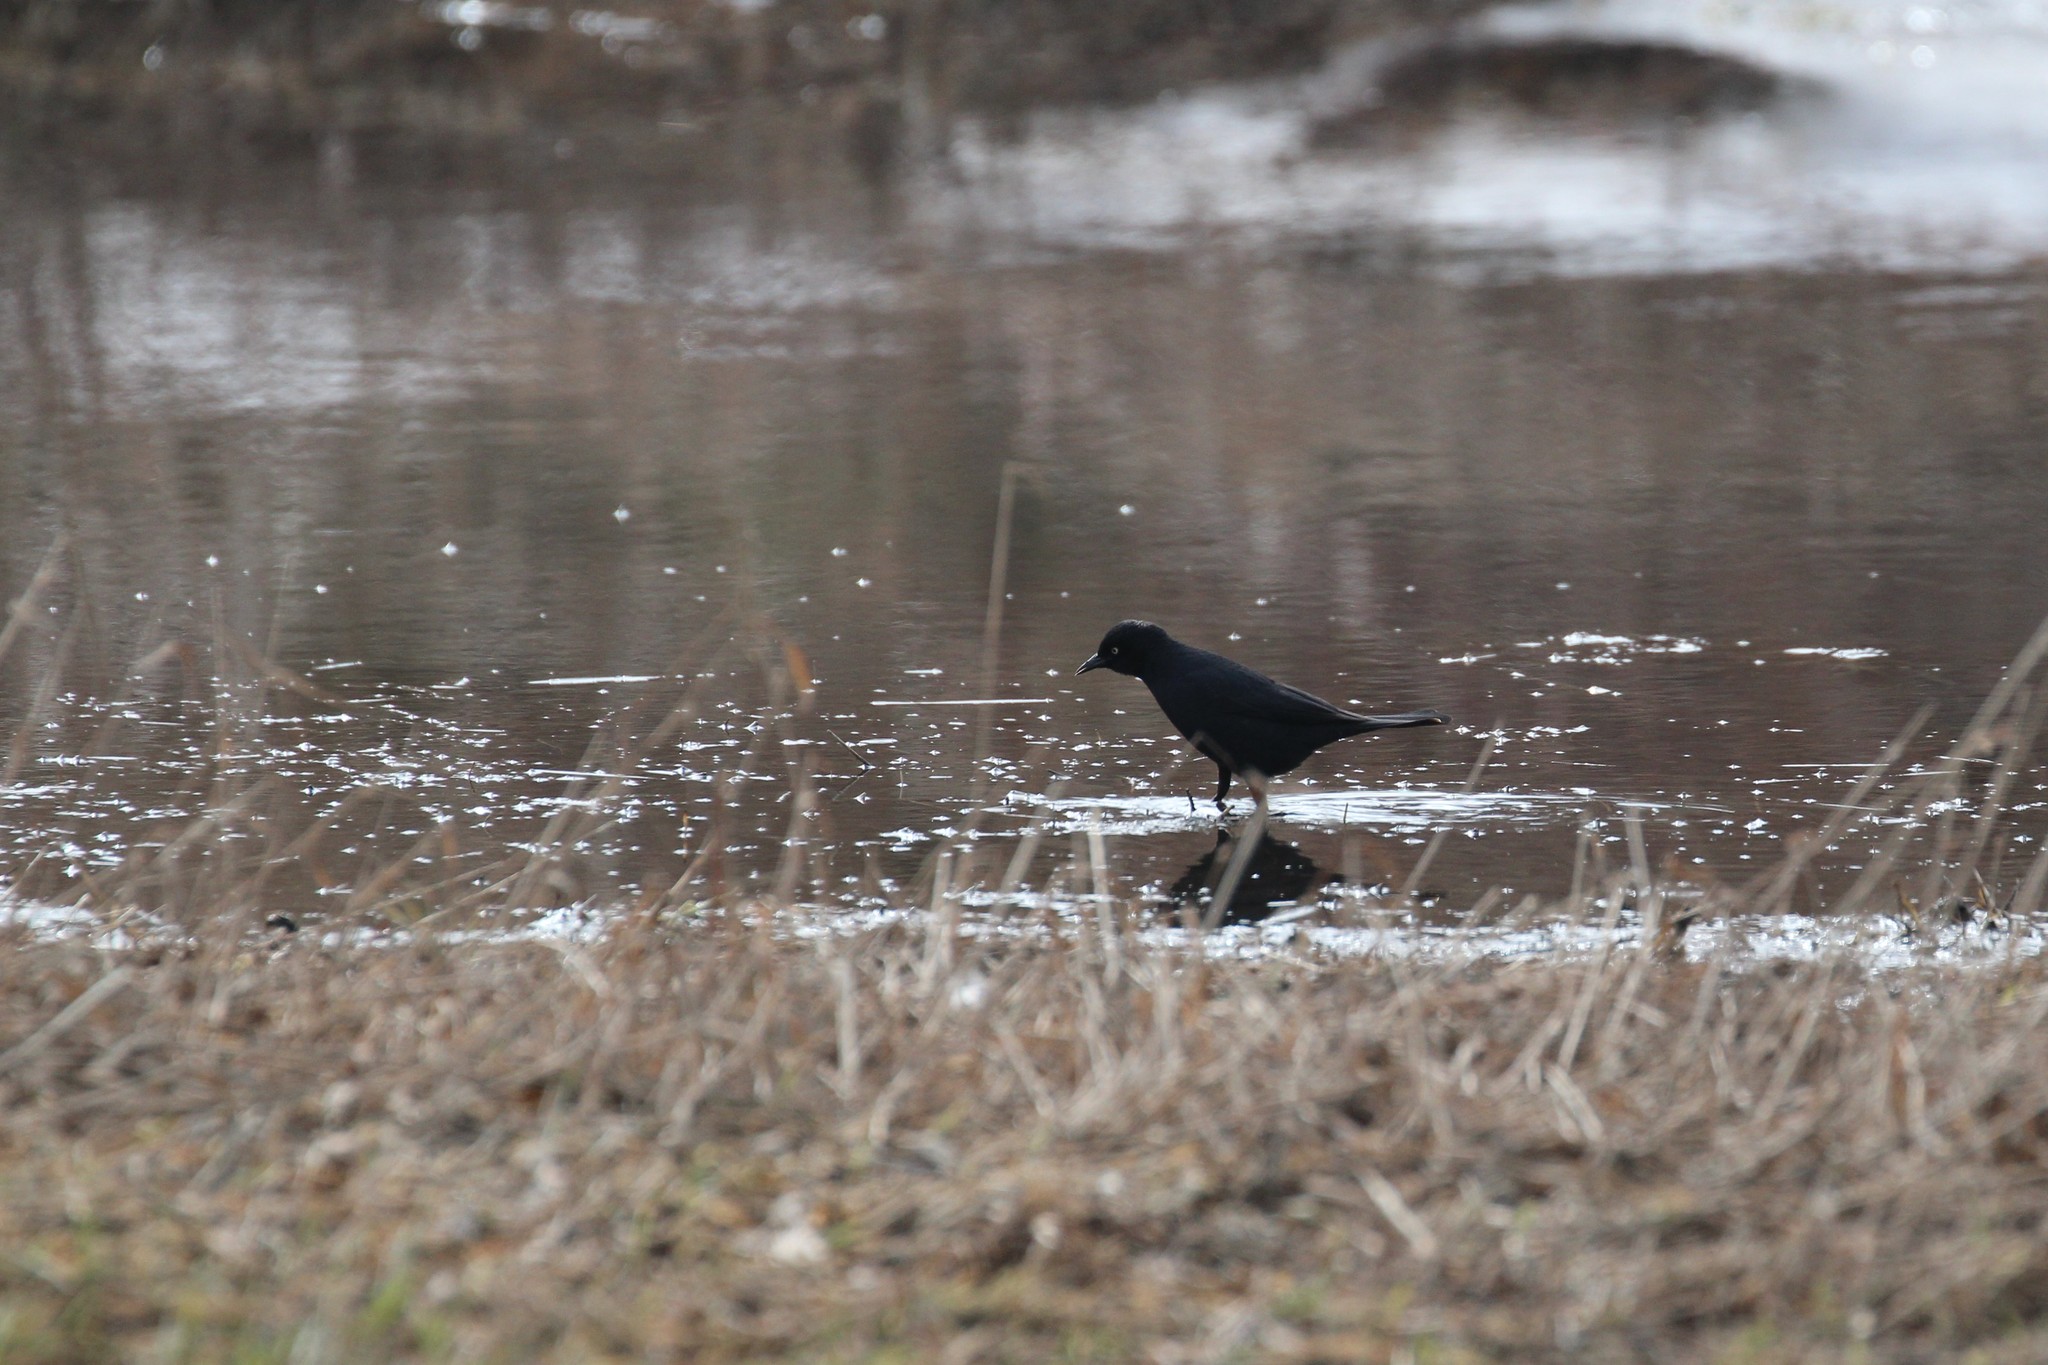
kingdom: Animalia
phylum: Chordata
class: Aves
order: Passeriformes
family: Icteridae
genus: Euphagus
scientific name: Euphagus carolinus
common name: Rusty blackbird
